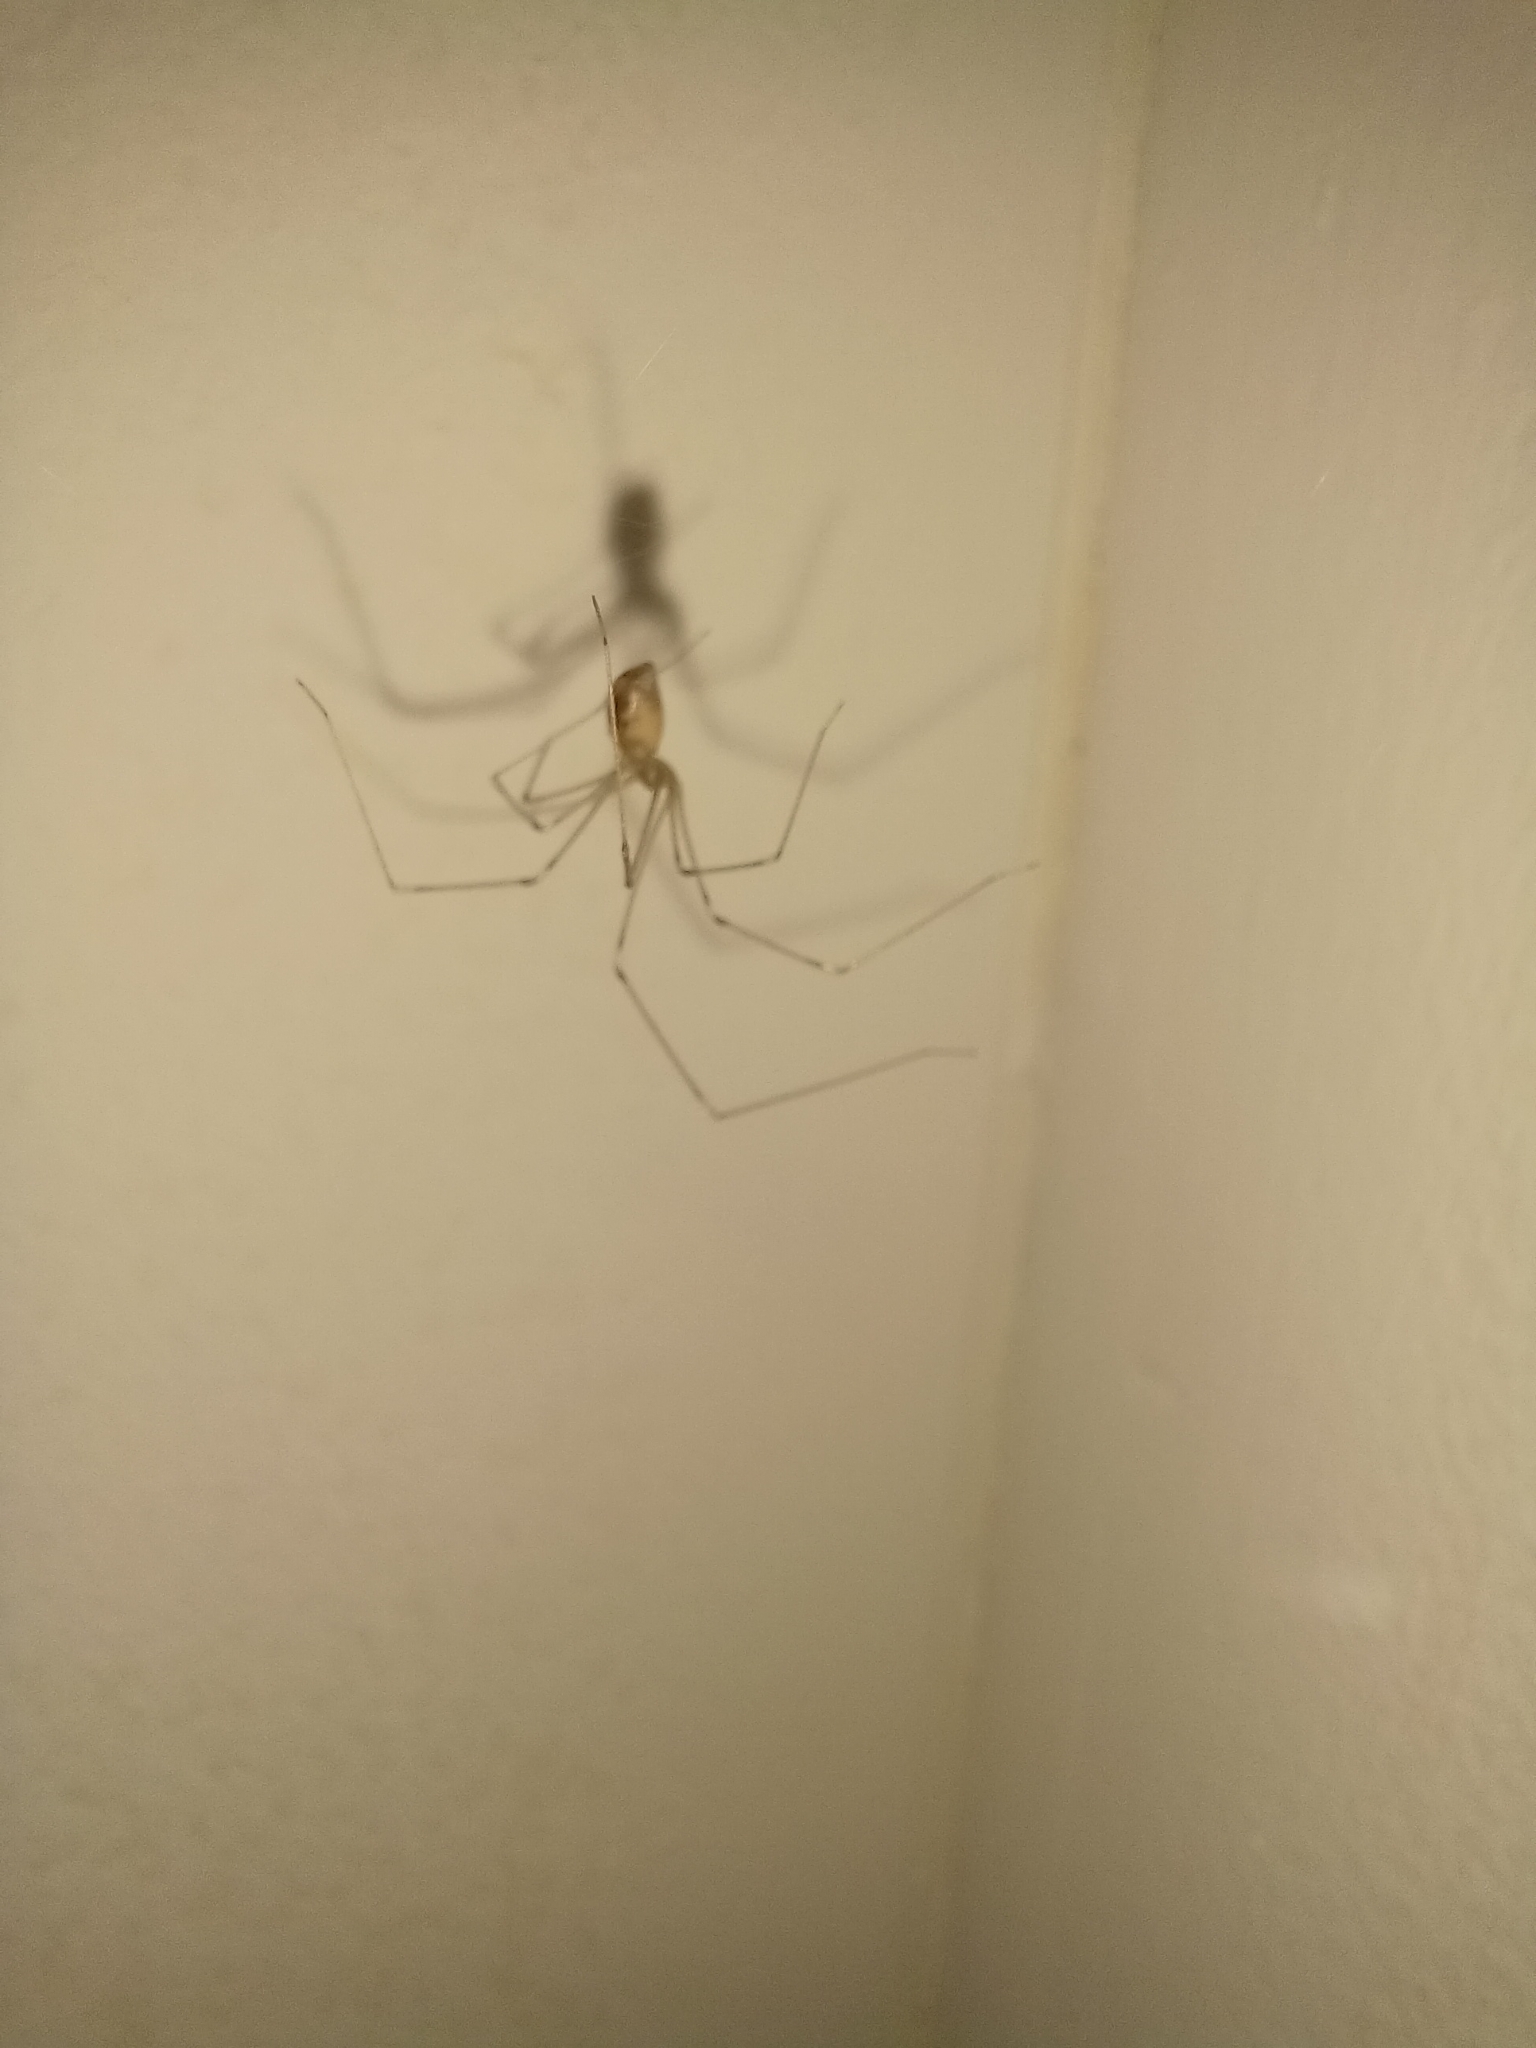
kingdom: Animalia
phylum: Arthropoda
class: Arachnida
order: Araneae
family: Pholcidae
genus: Pholcus
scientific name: Pholcus phalangioides
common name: Longbodied cellar spider
